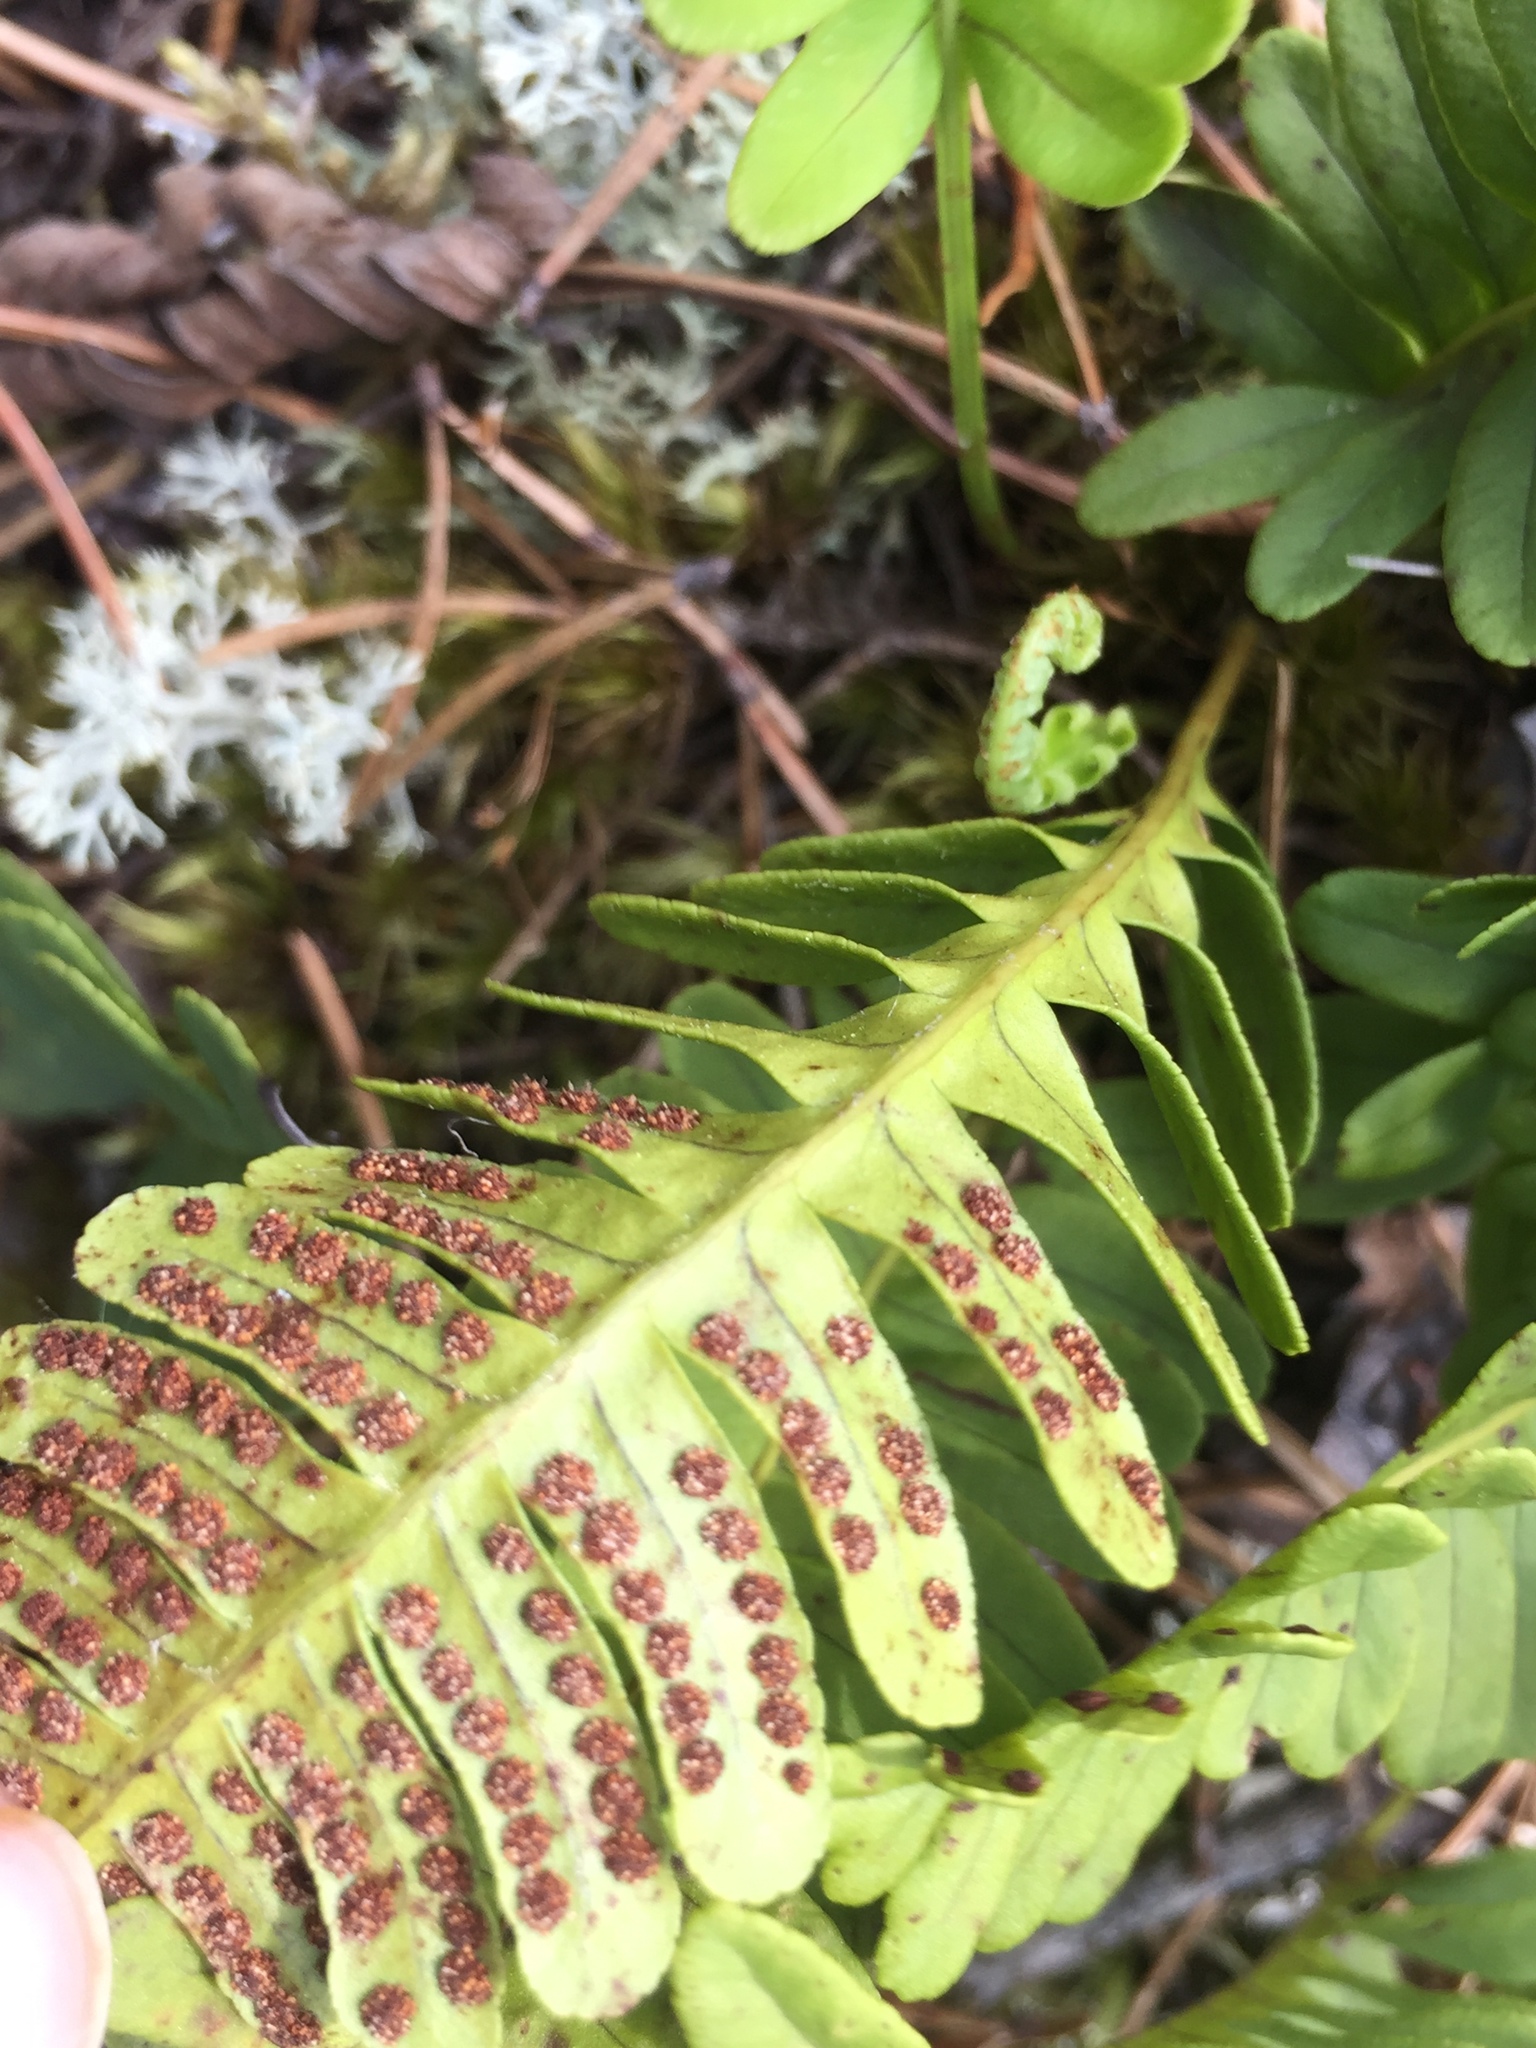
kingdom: Plantae
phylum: Tracheophyta
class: Polypodiopsida
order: Polypodiales
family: Polypodiaceae
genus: Polypodium
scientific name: Polypodium virginianum
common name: American wall fern
